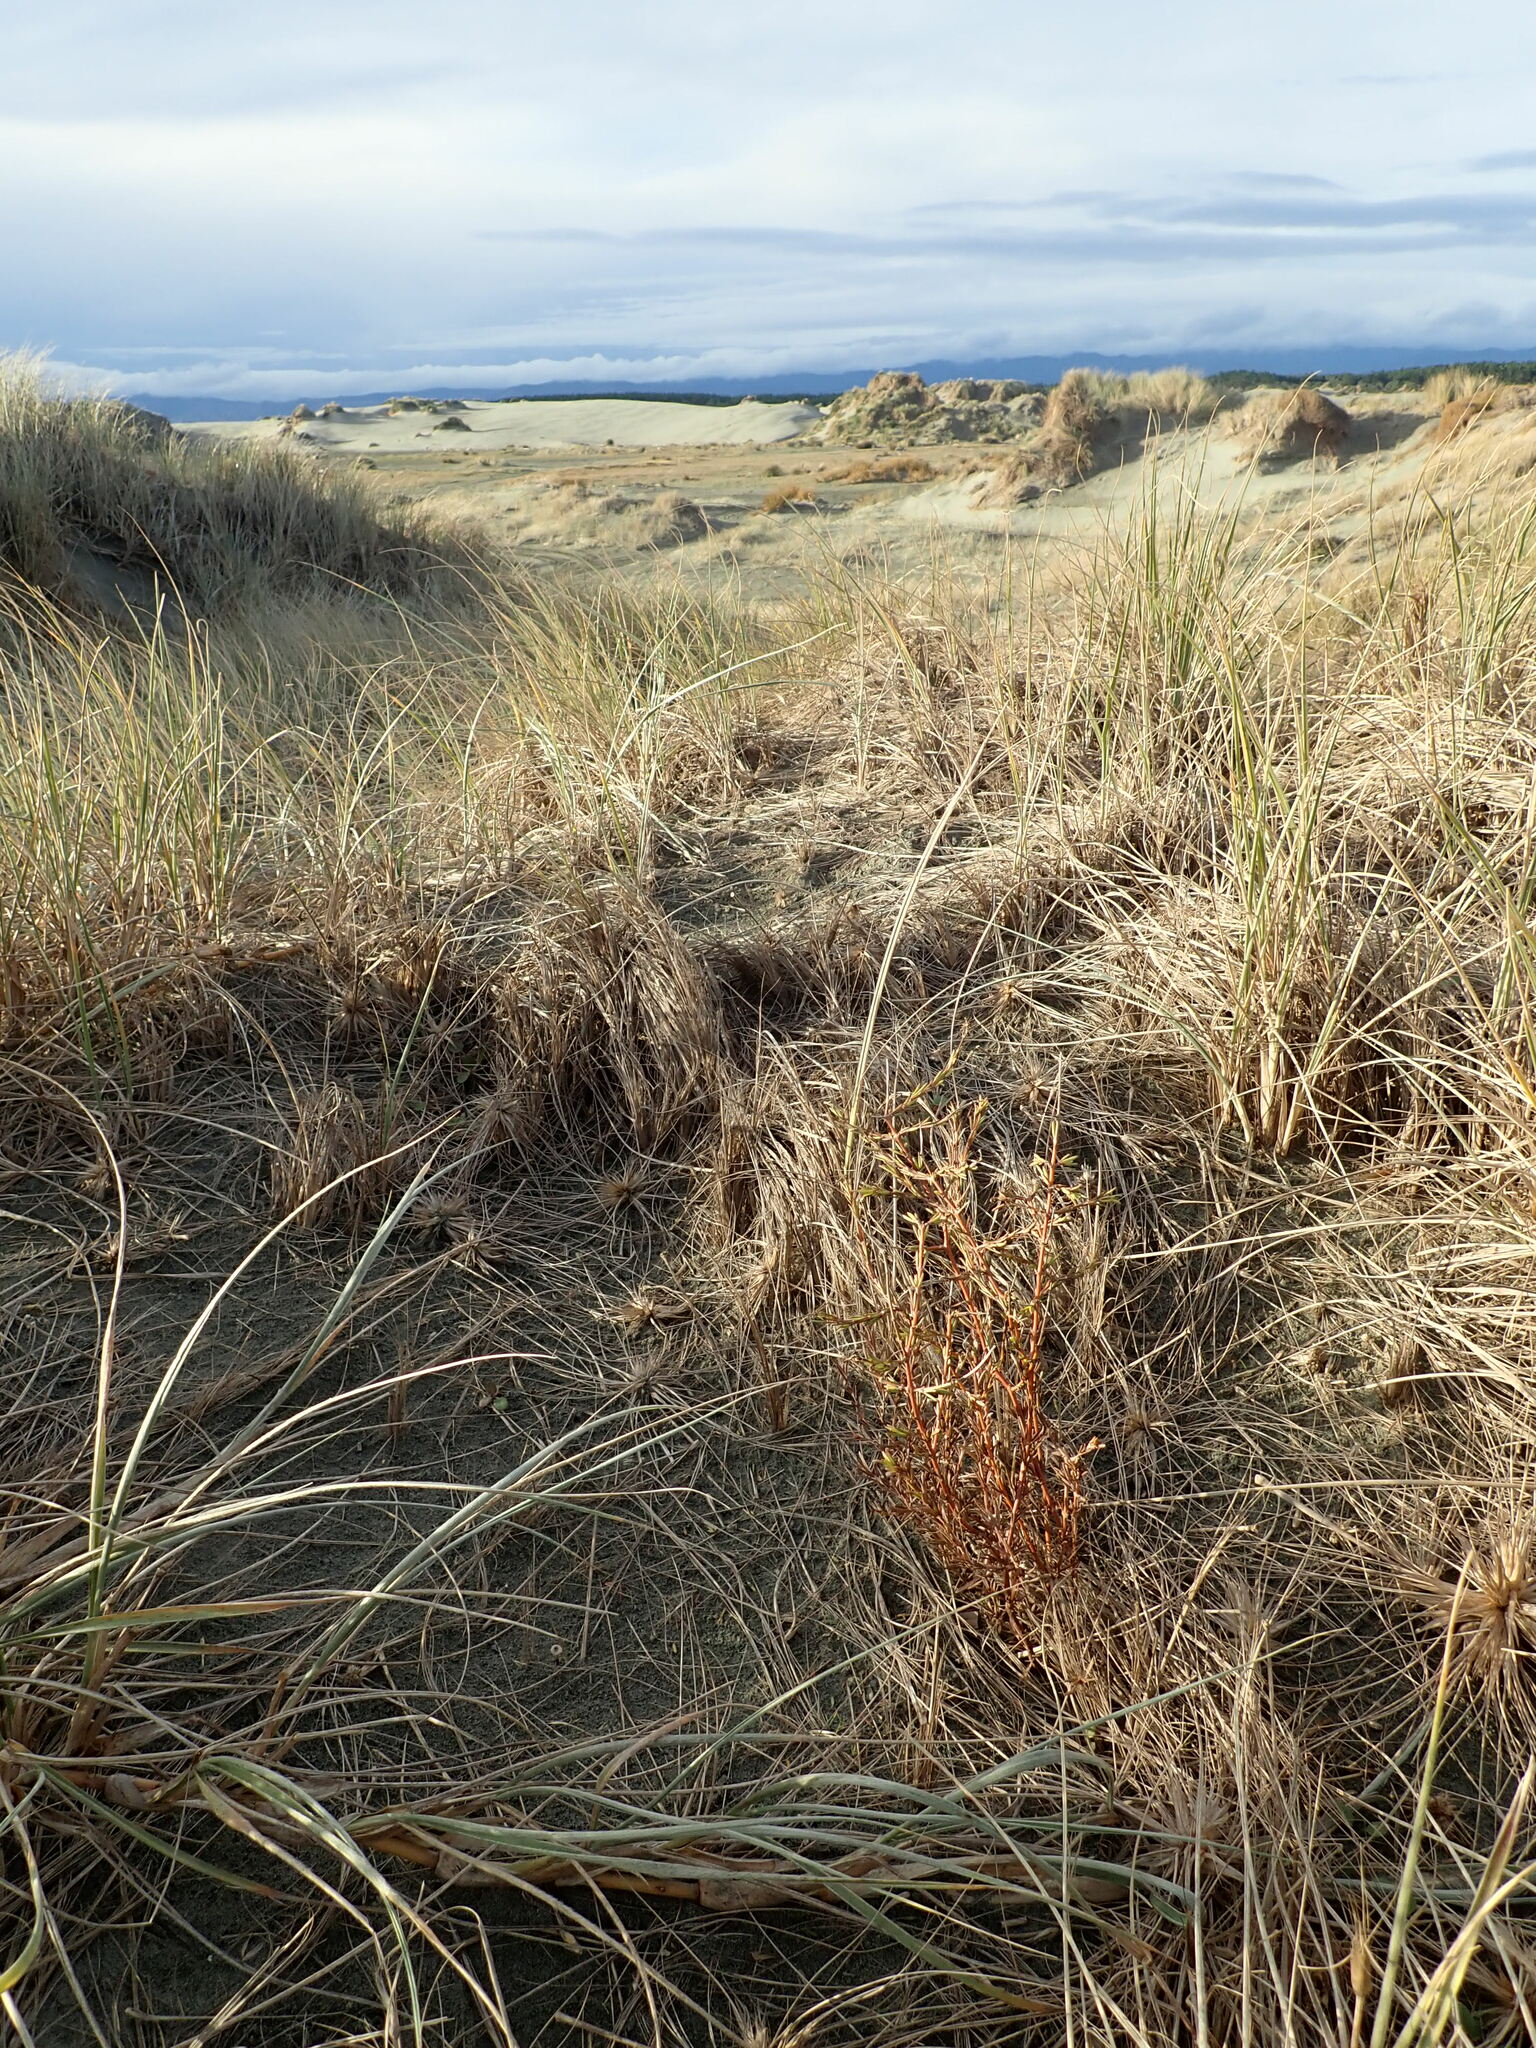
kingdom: Plantae
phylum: Tracheophyta
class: Magnoliopsida
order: Gentianales
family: Rubiaceae
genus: Coprosma
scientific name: Coprosma acerosa
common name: Sand coprosma
